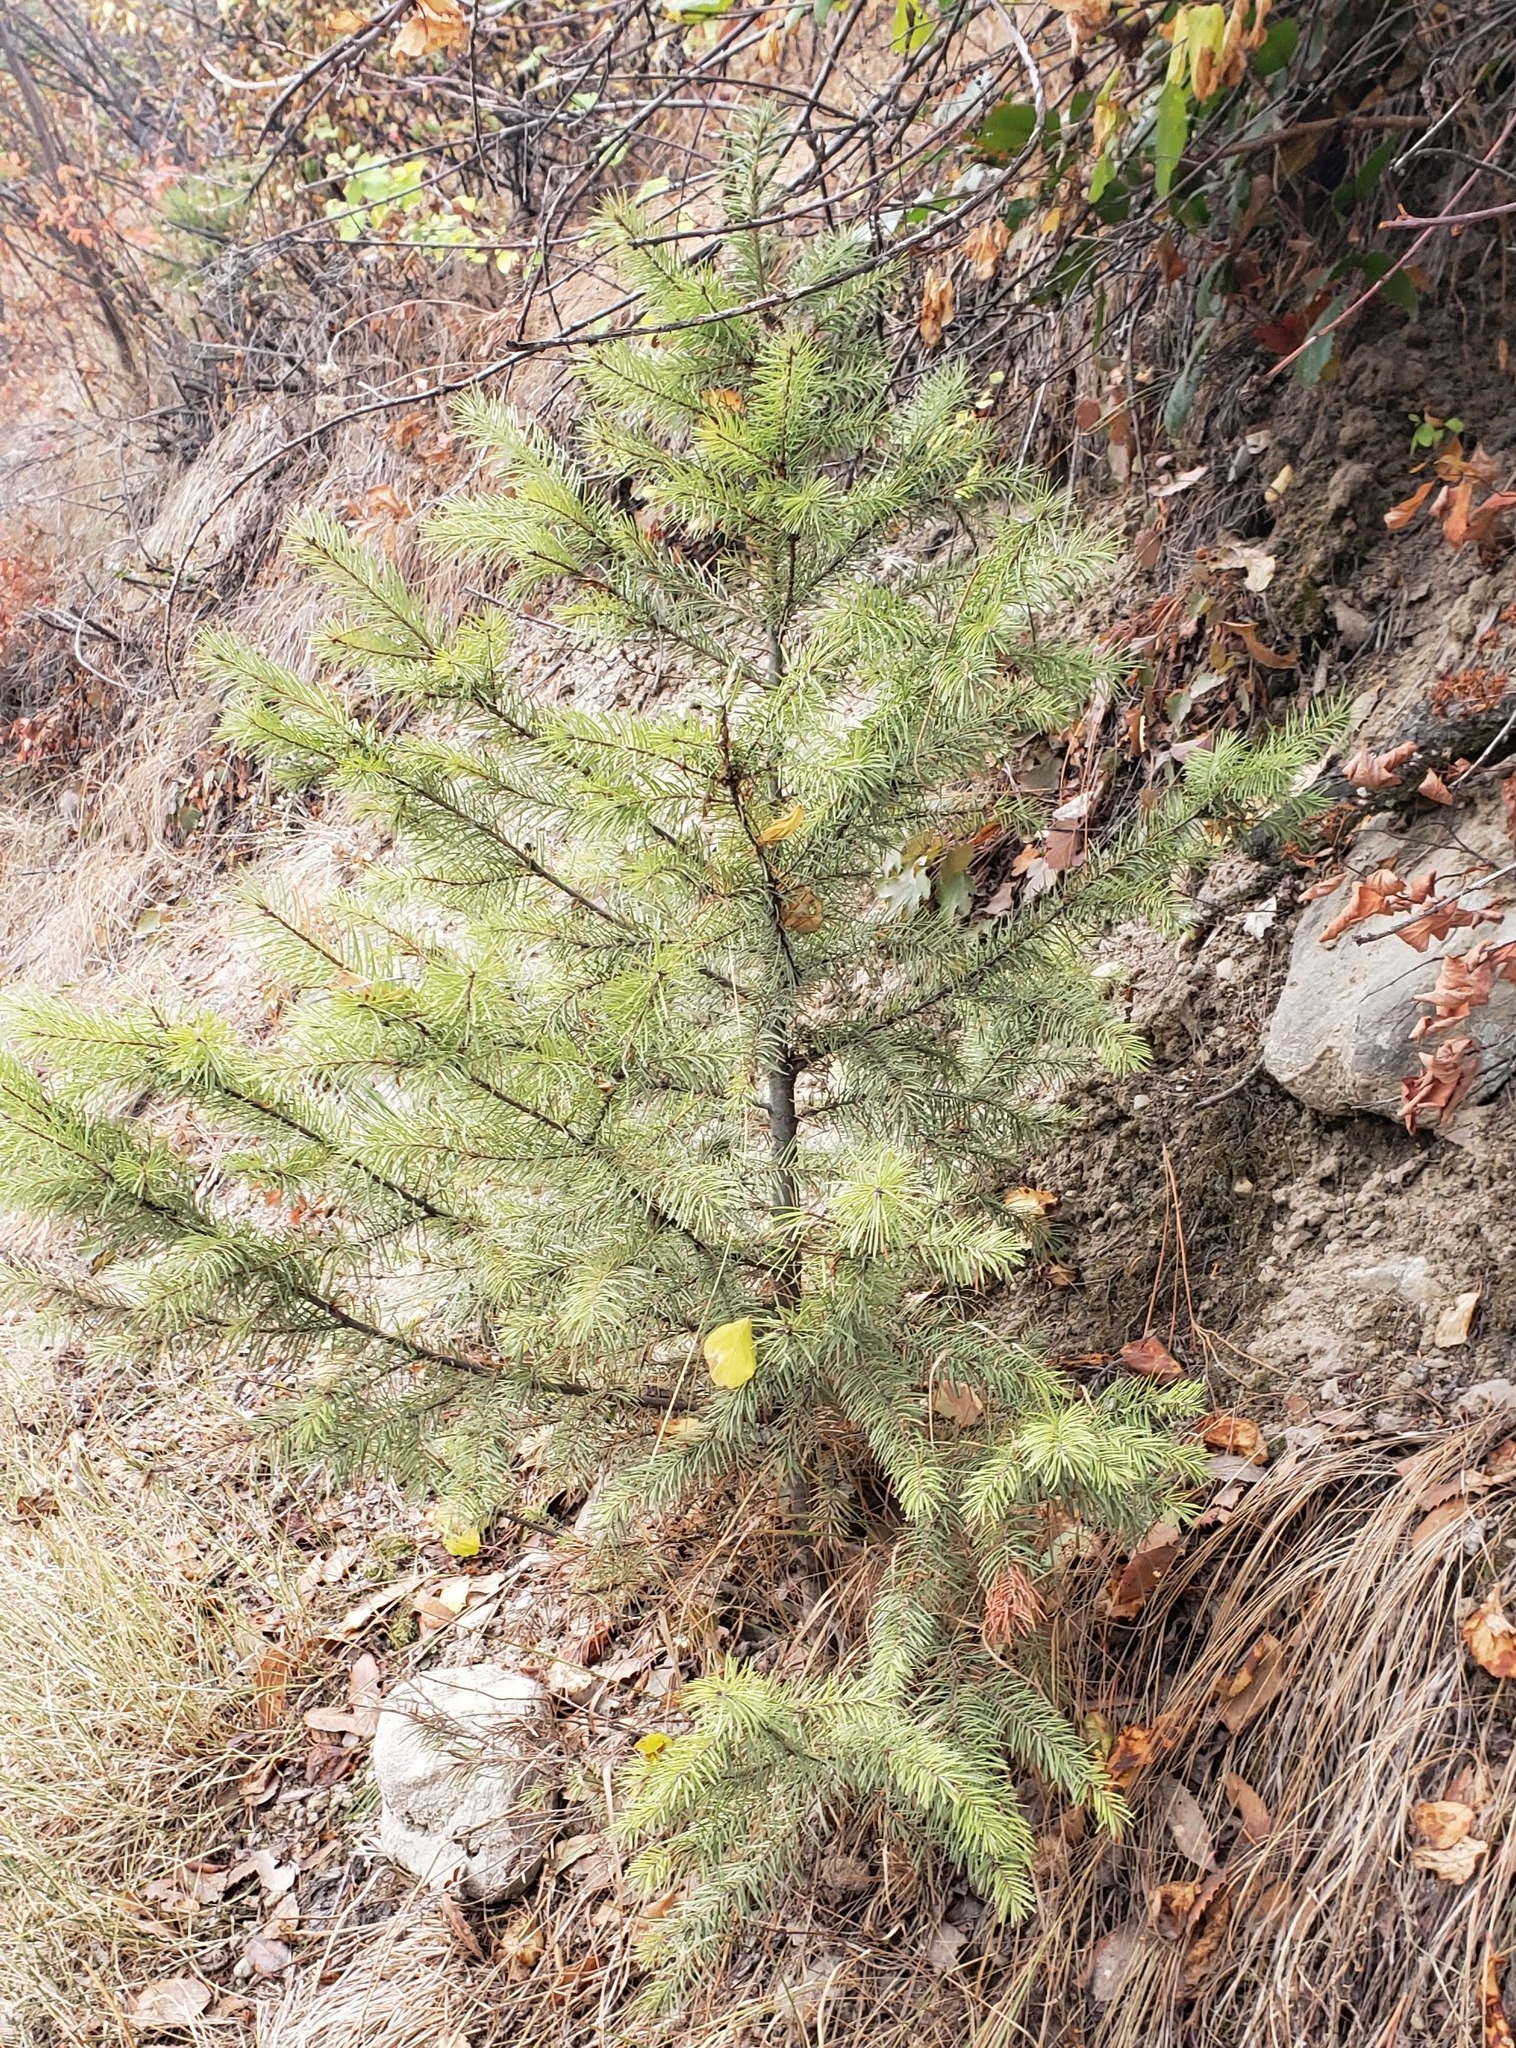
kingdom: Plantae
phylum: Tracheophyta
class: Pinopsida
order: Pinales
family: Pinaceae
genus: Pseudotsuga
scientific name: Pseudotsuga menziesii
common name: Douglas fir
